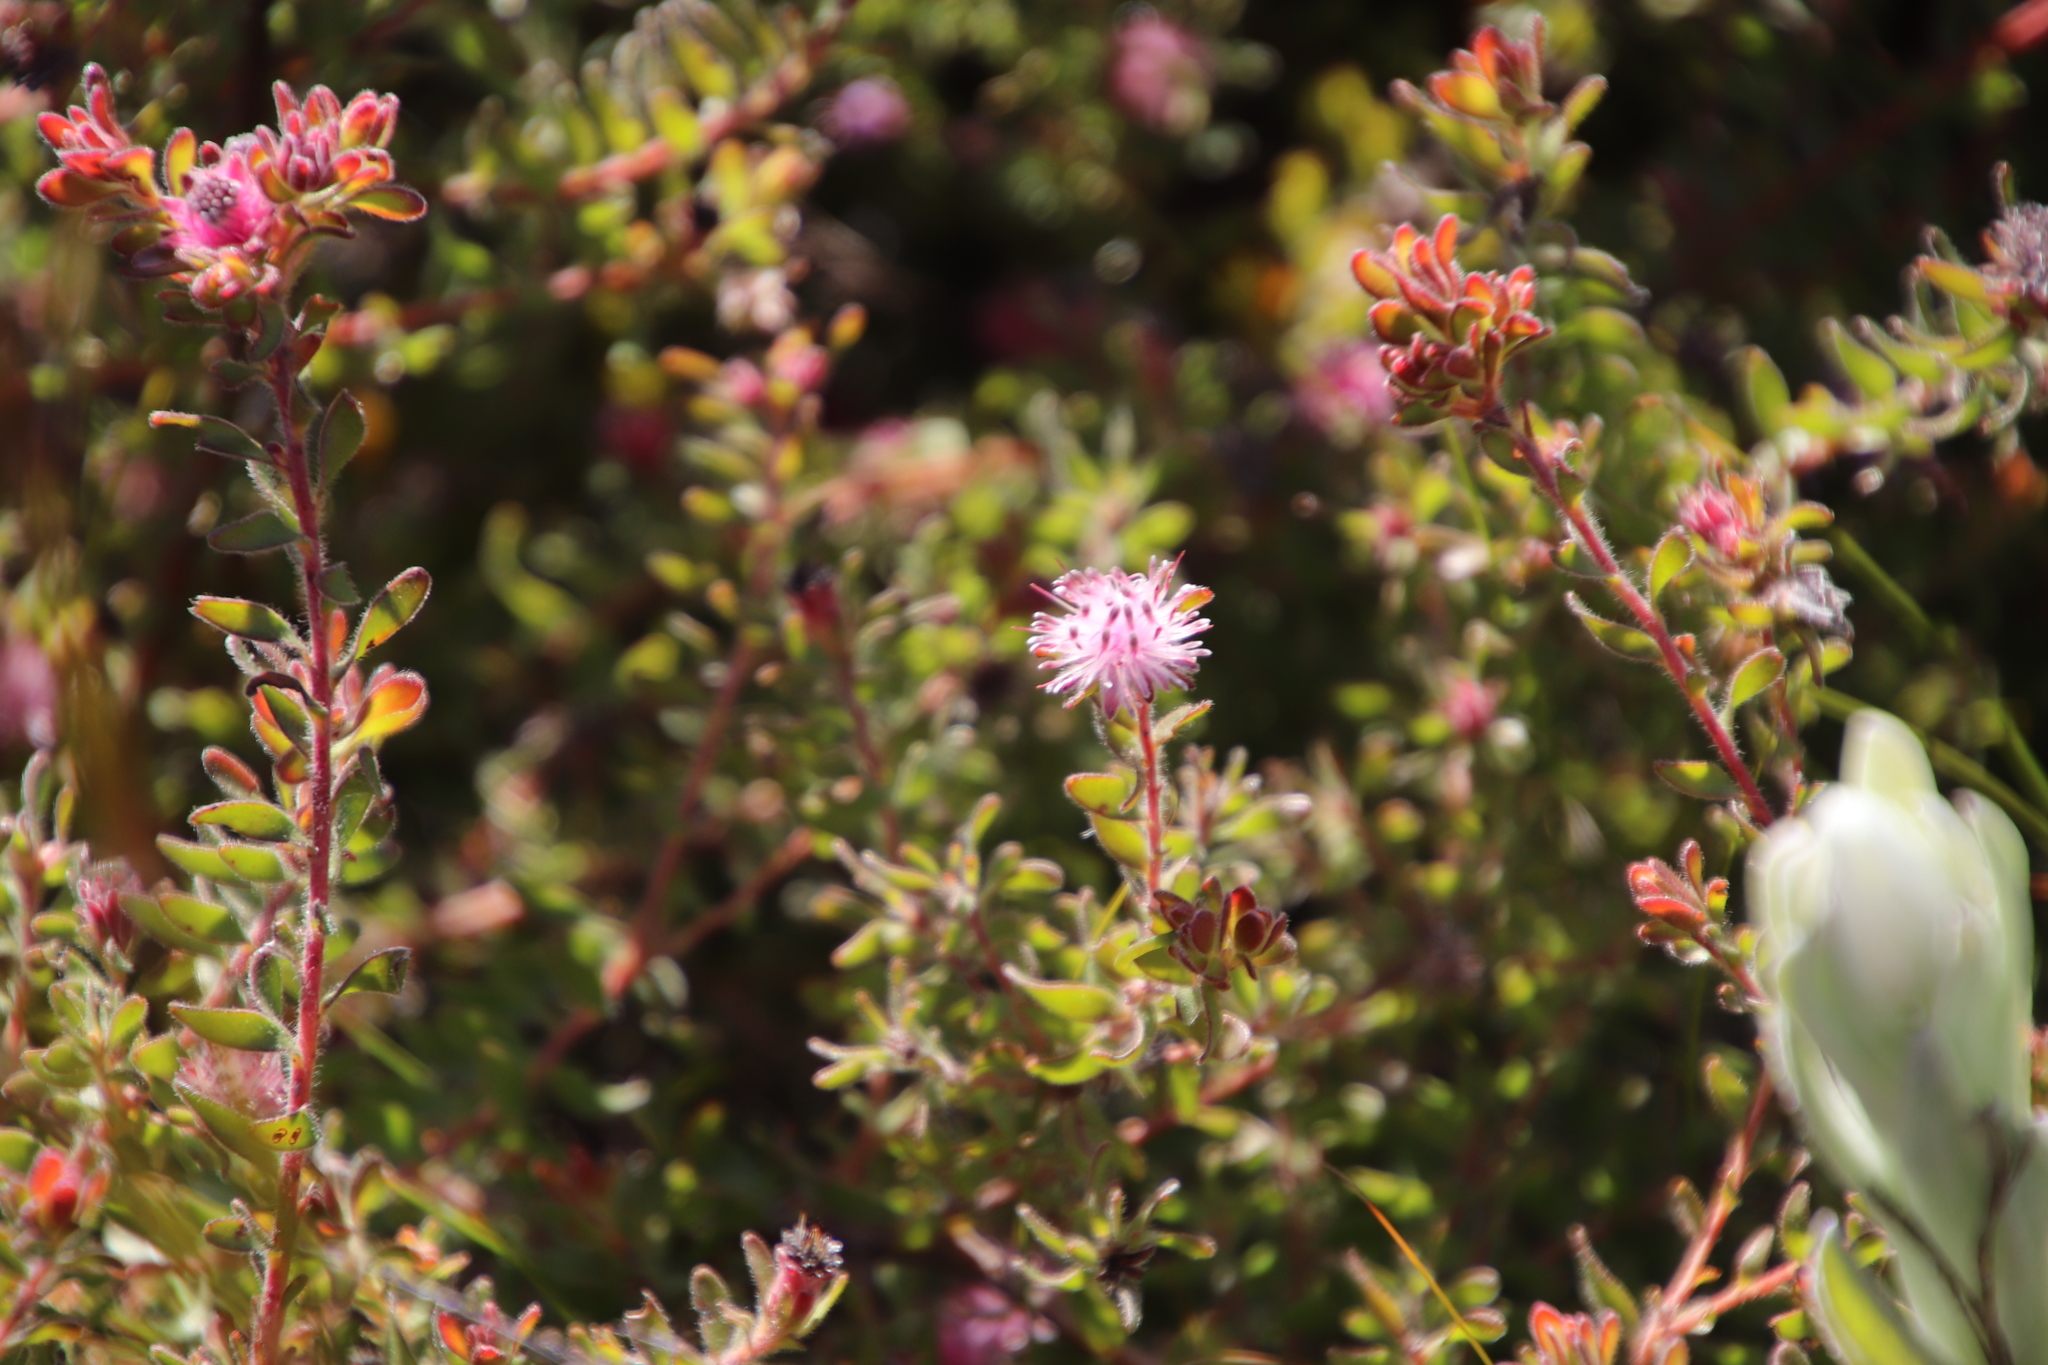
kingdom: Plantae
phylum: Tracheophyta
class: Magnoliopsida
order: Proteales
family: Proteaceae
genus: Diastella
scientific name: Diastella divaricata
